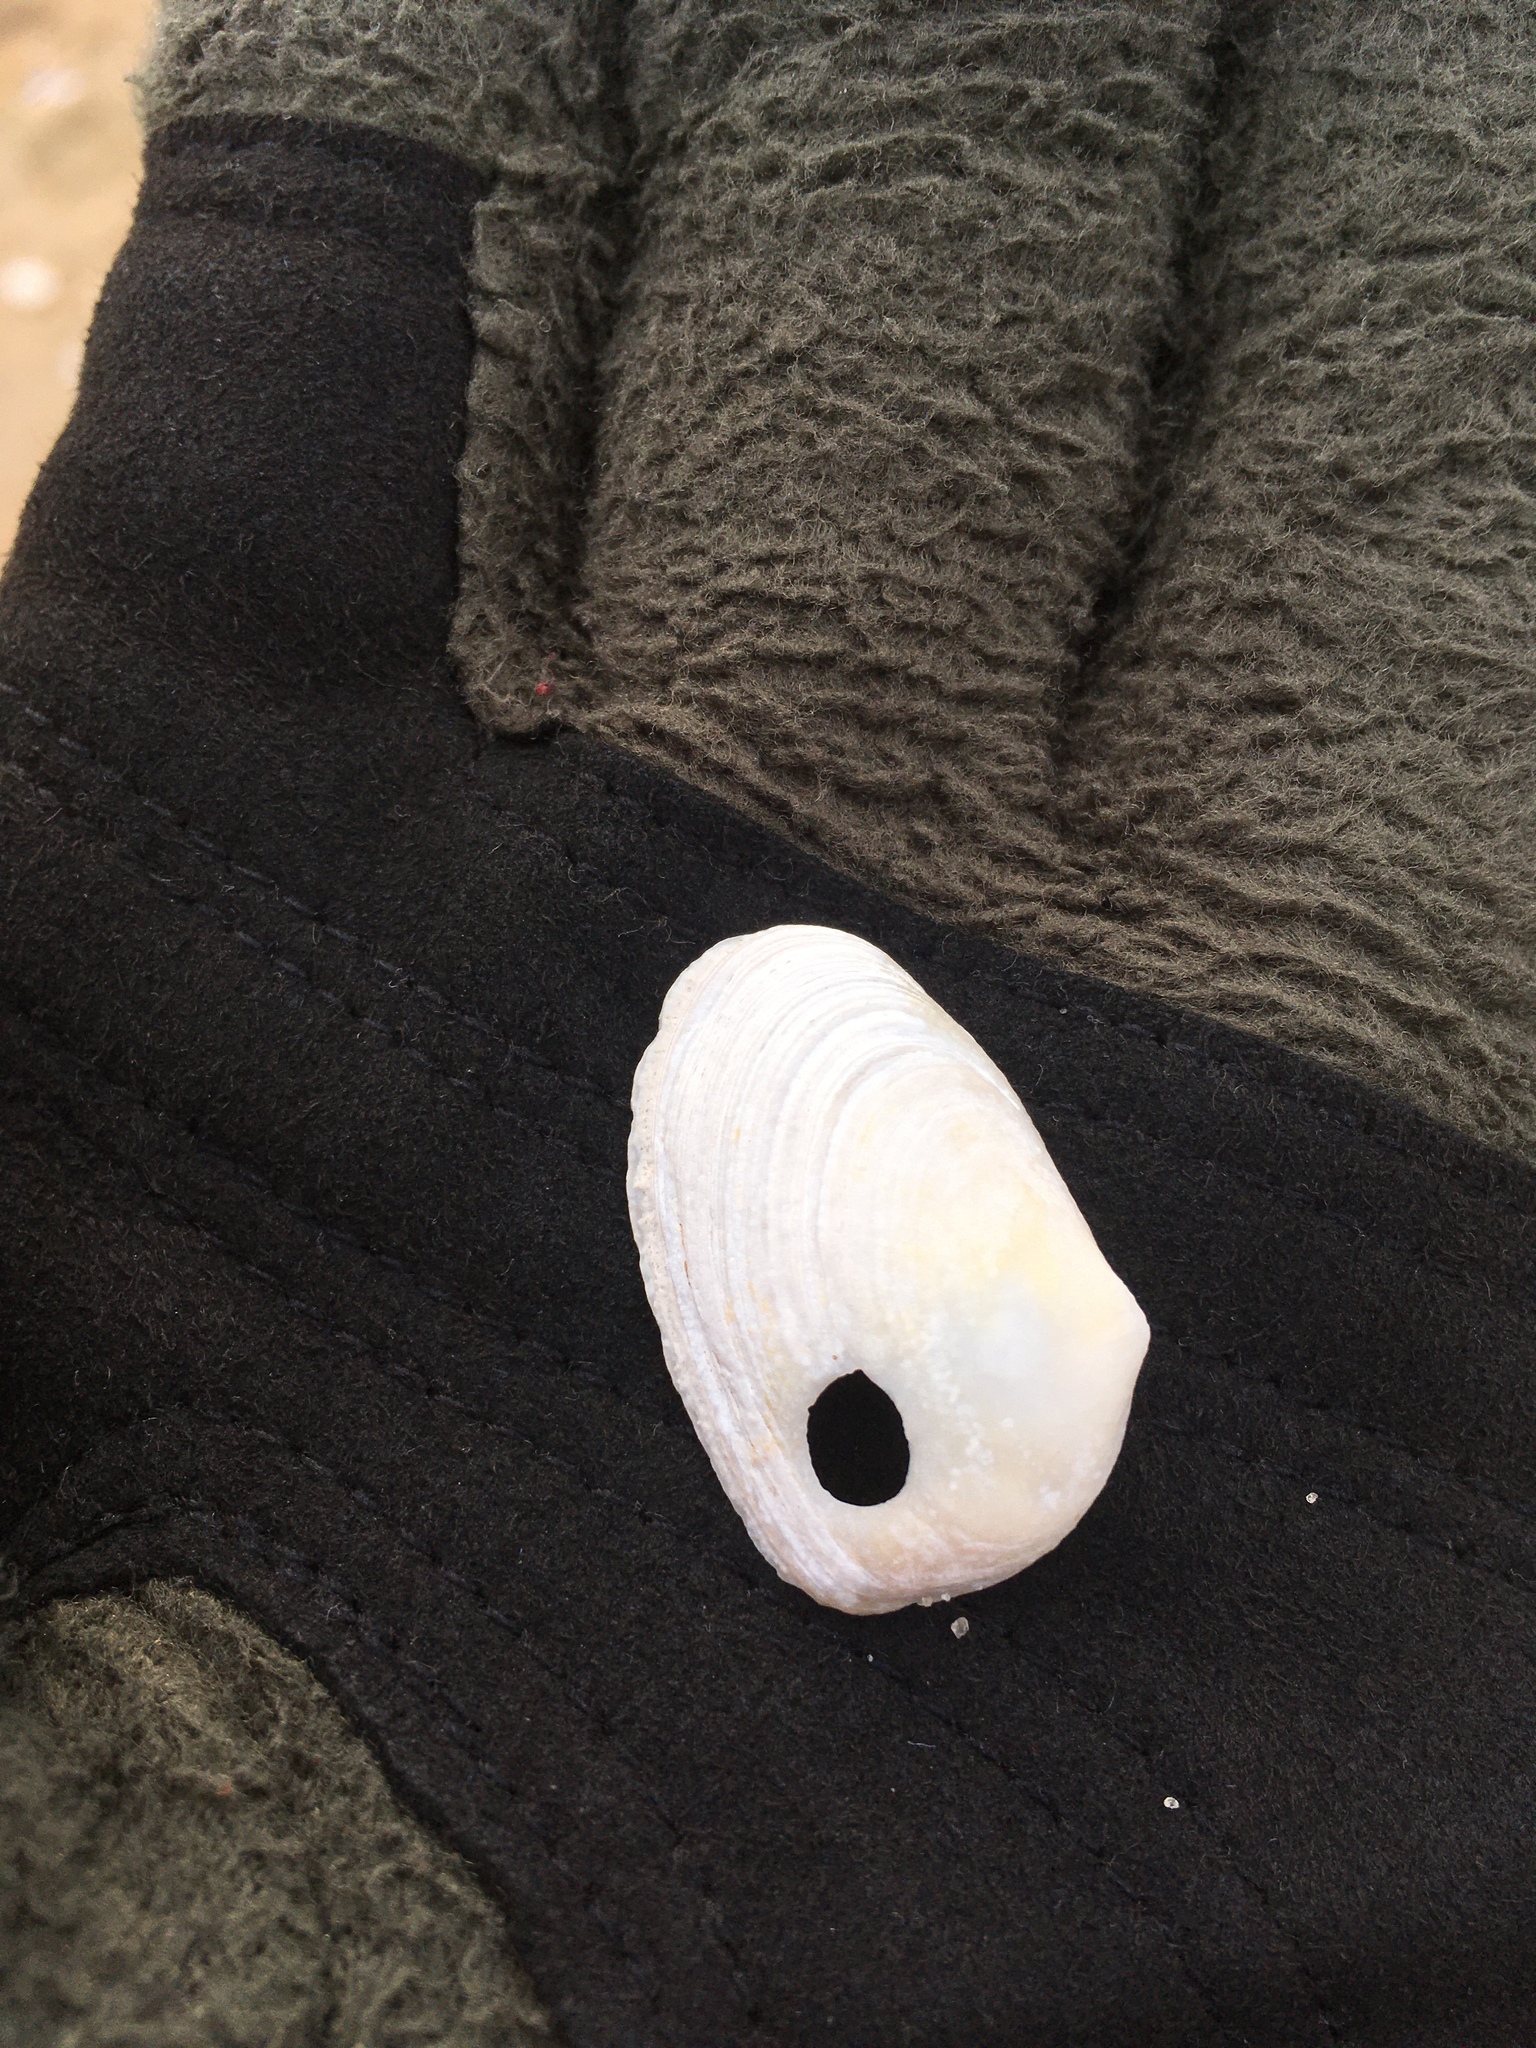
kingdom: Animalia
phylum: Mollusca
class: Bivalvia
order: Venerida
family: Mesodesmatidae
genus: Mesodesma
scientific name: Mesodesma arctatum
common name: Compressed clam
